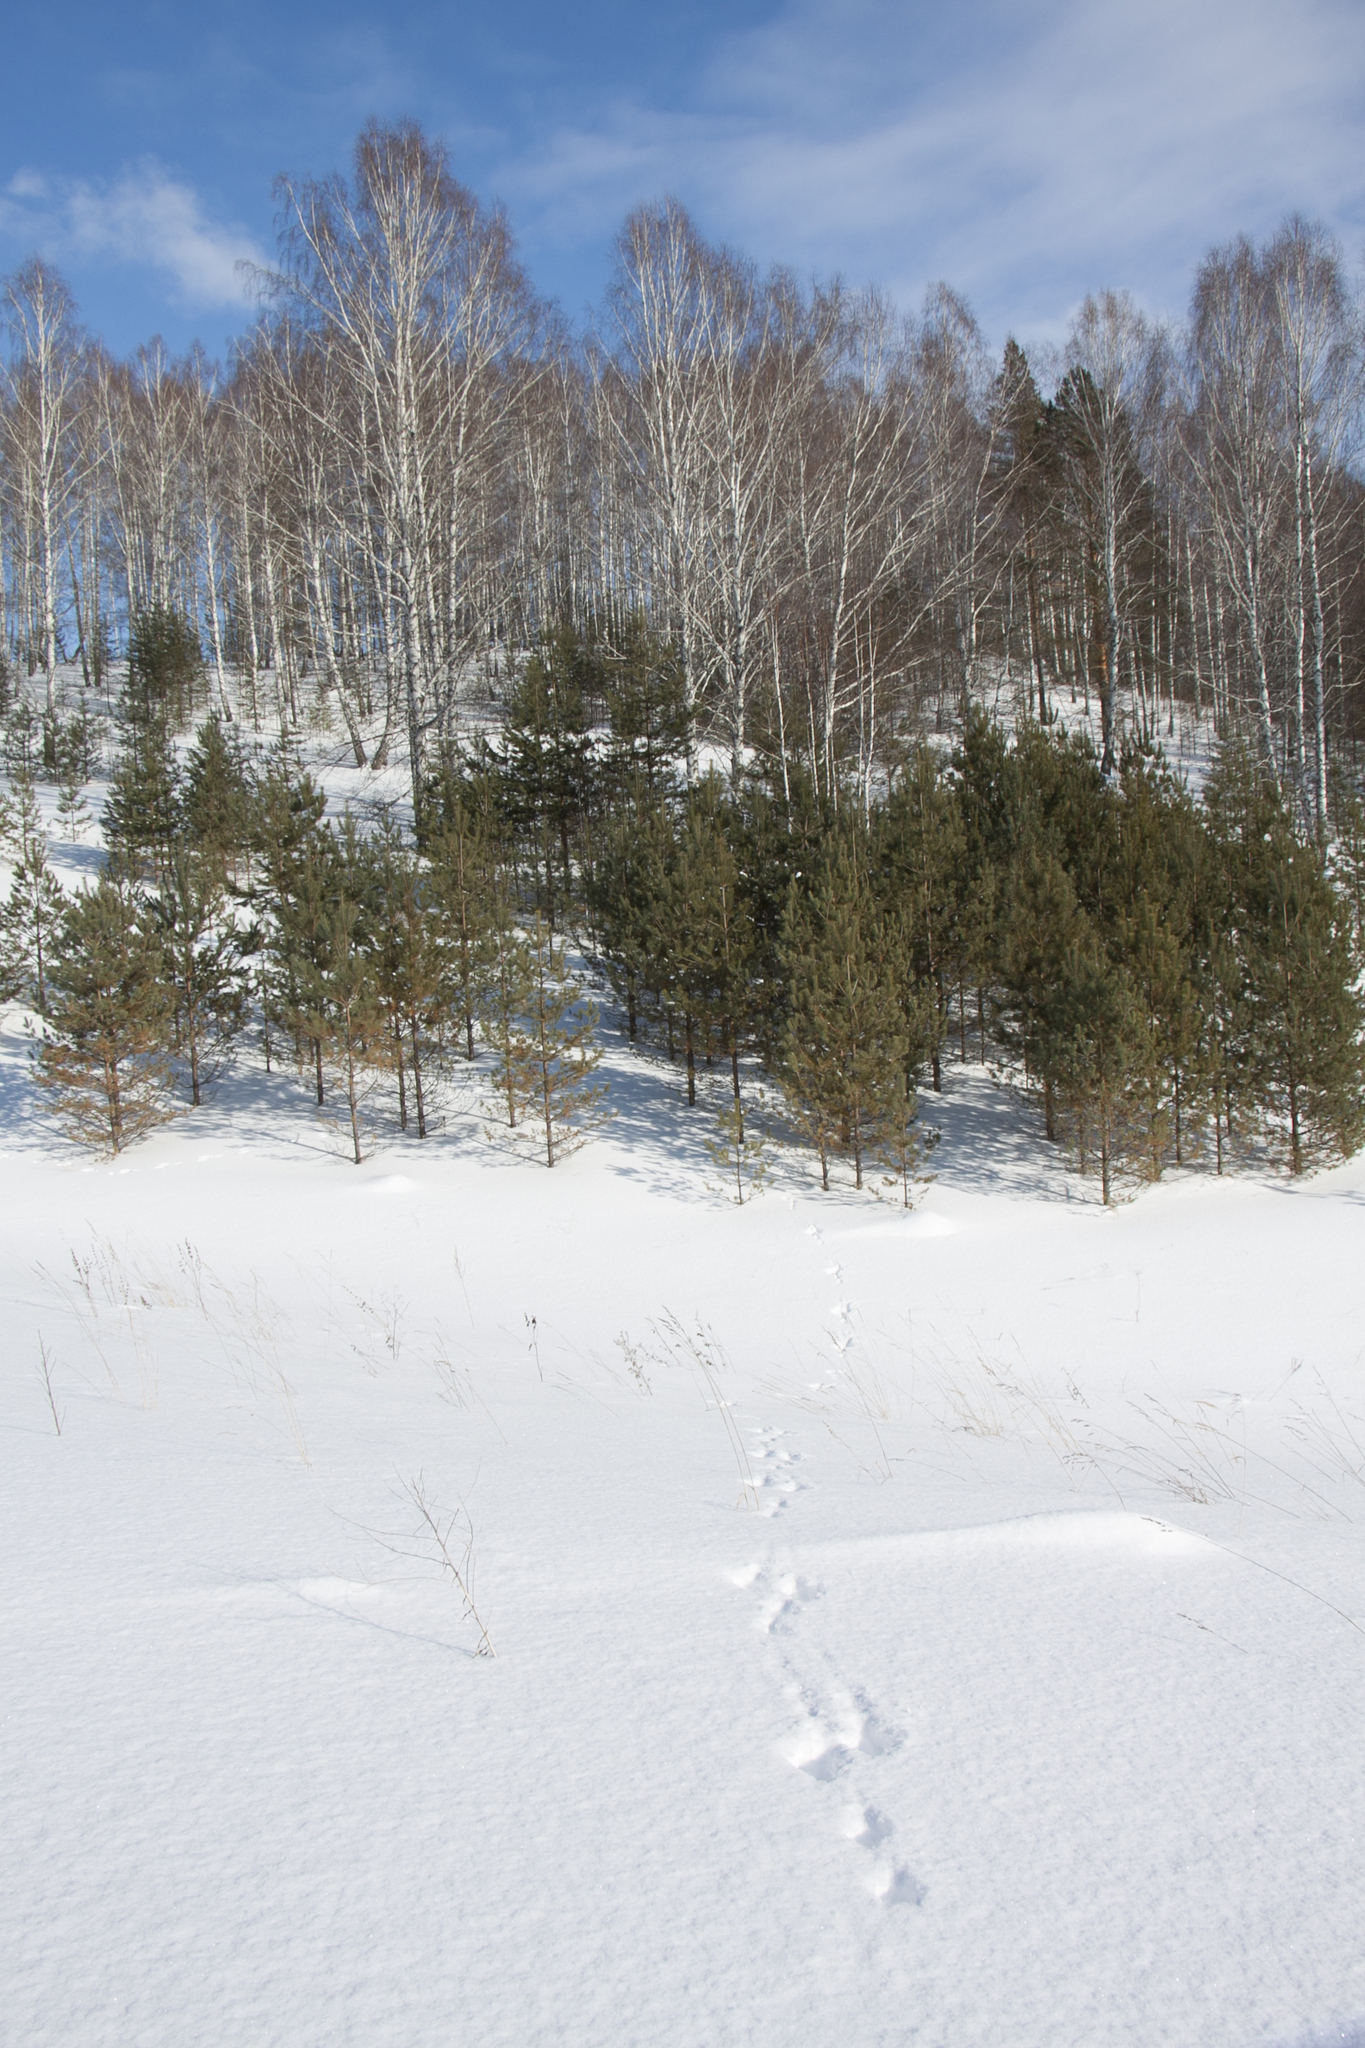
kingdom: Animalia
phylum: Chordata
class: Mammalia
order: Lagomorpha
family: Leporidae
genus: Lepus
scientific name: Lepus timidus
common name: Mountain hare
